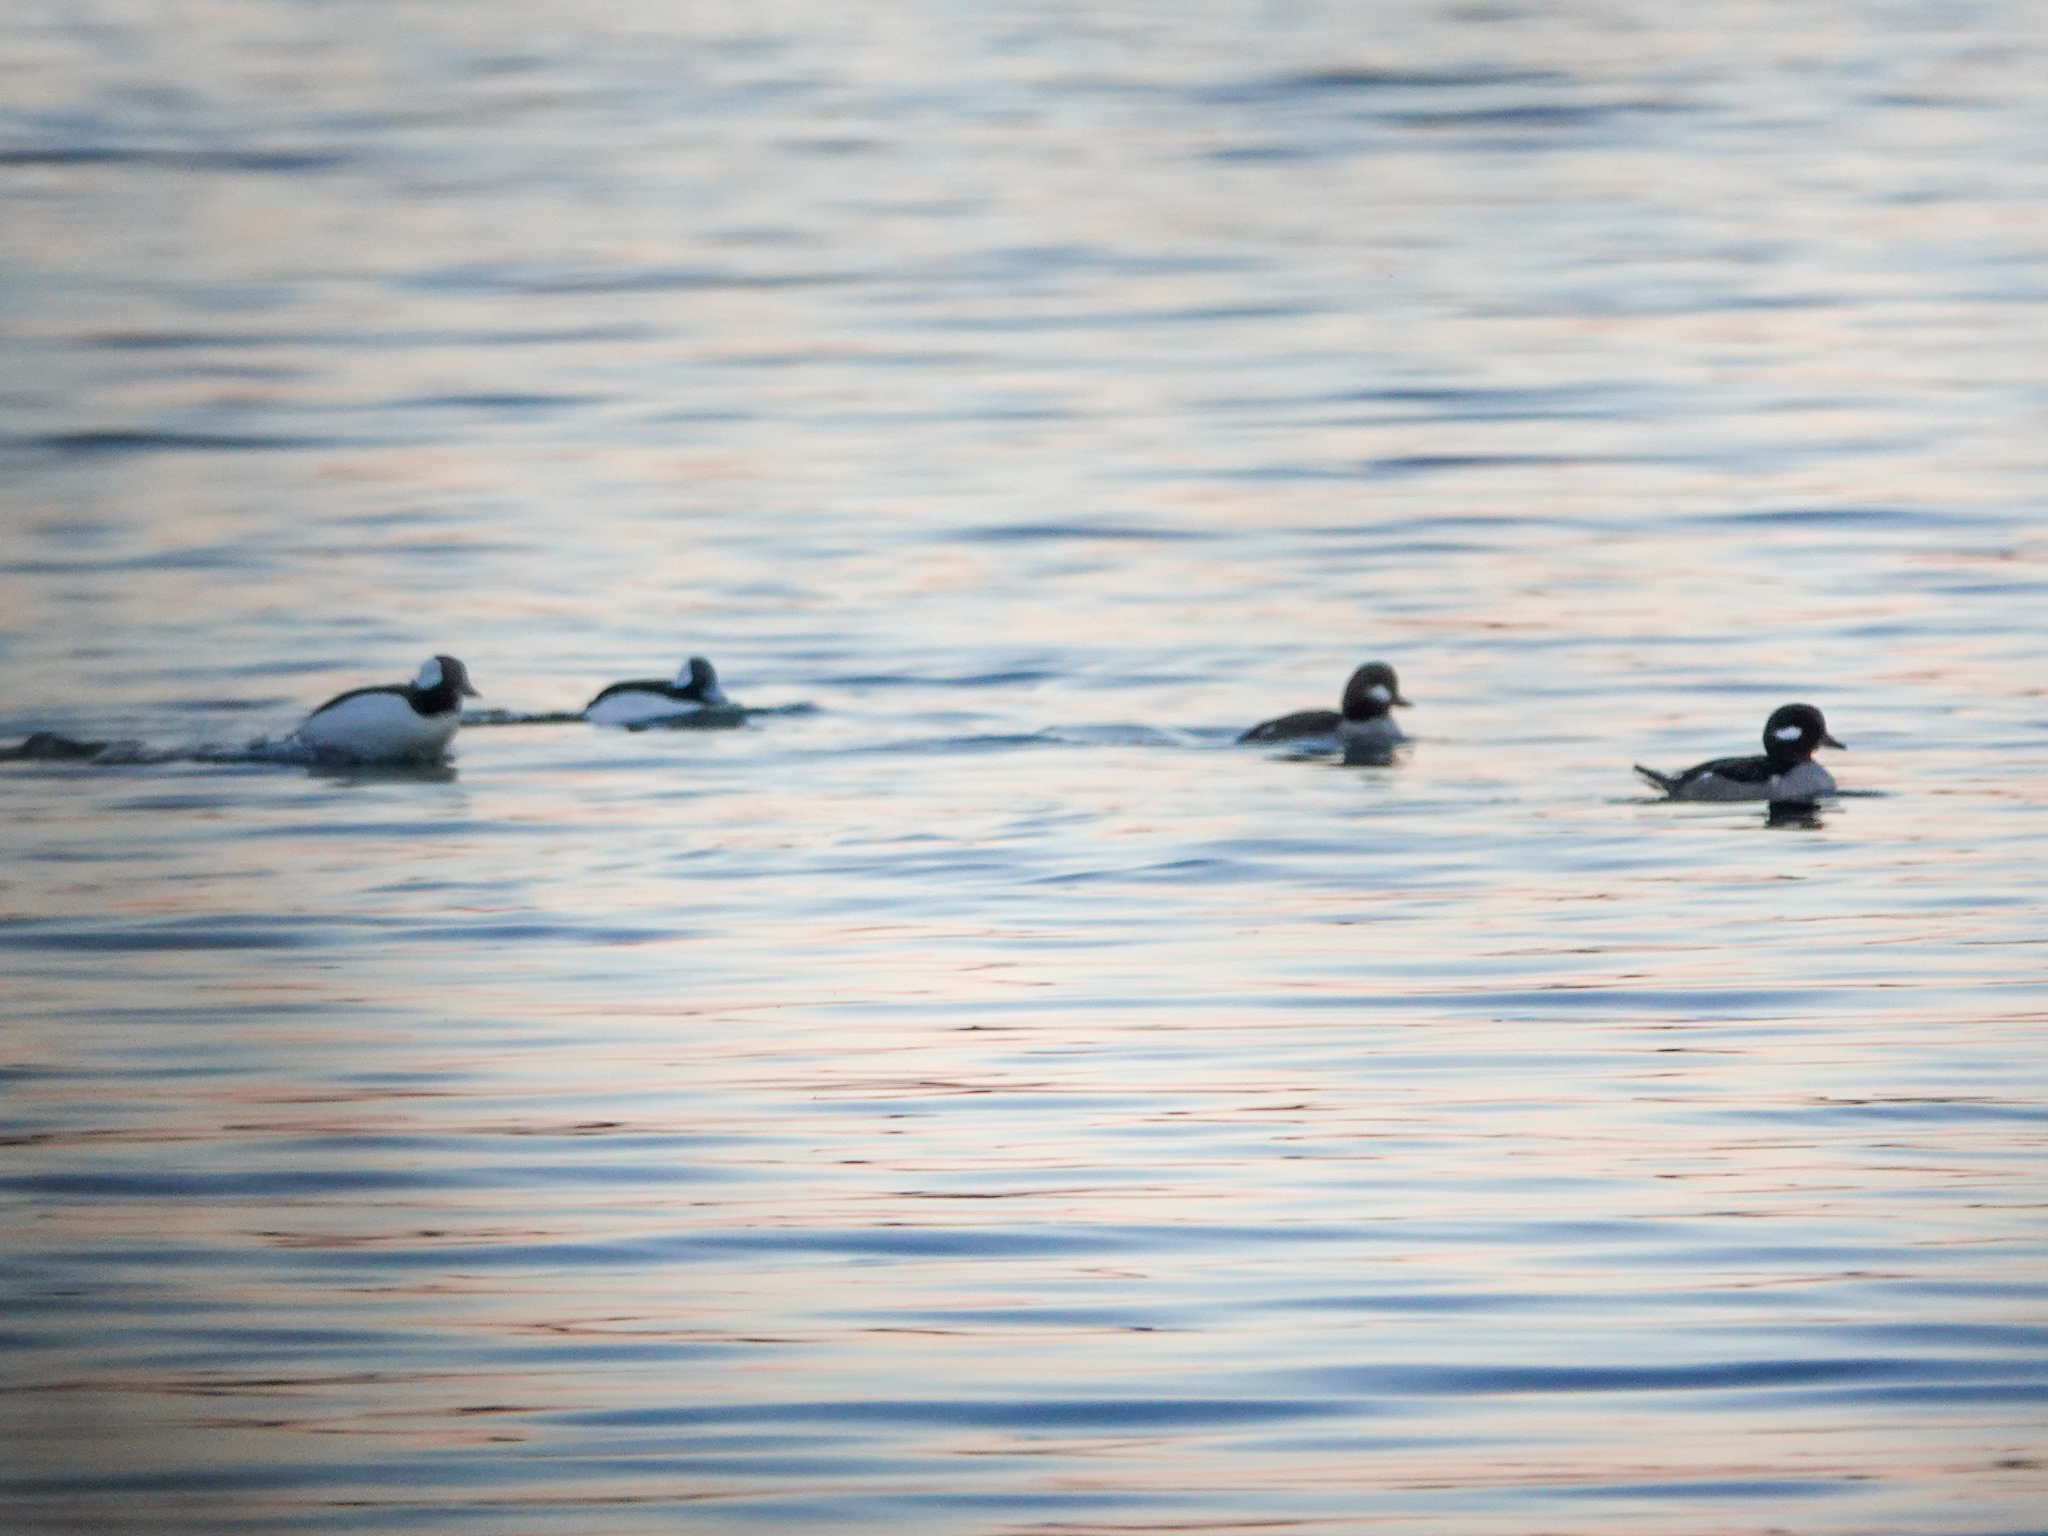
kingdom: Animalia
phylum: Chordata
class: Aves
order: Anseriformes
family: Anatidae
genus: Bucephala
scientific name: Bucephala albeola
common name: Bufflehead
